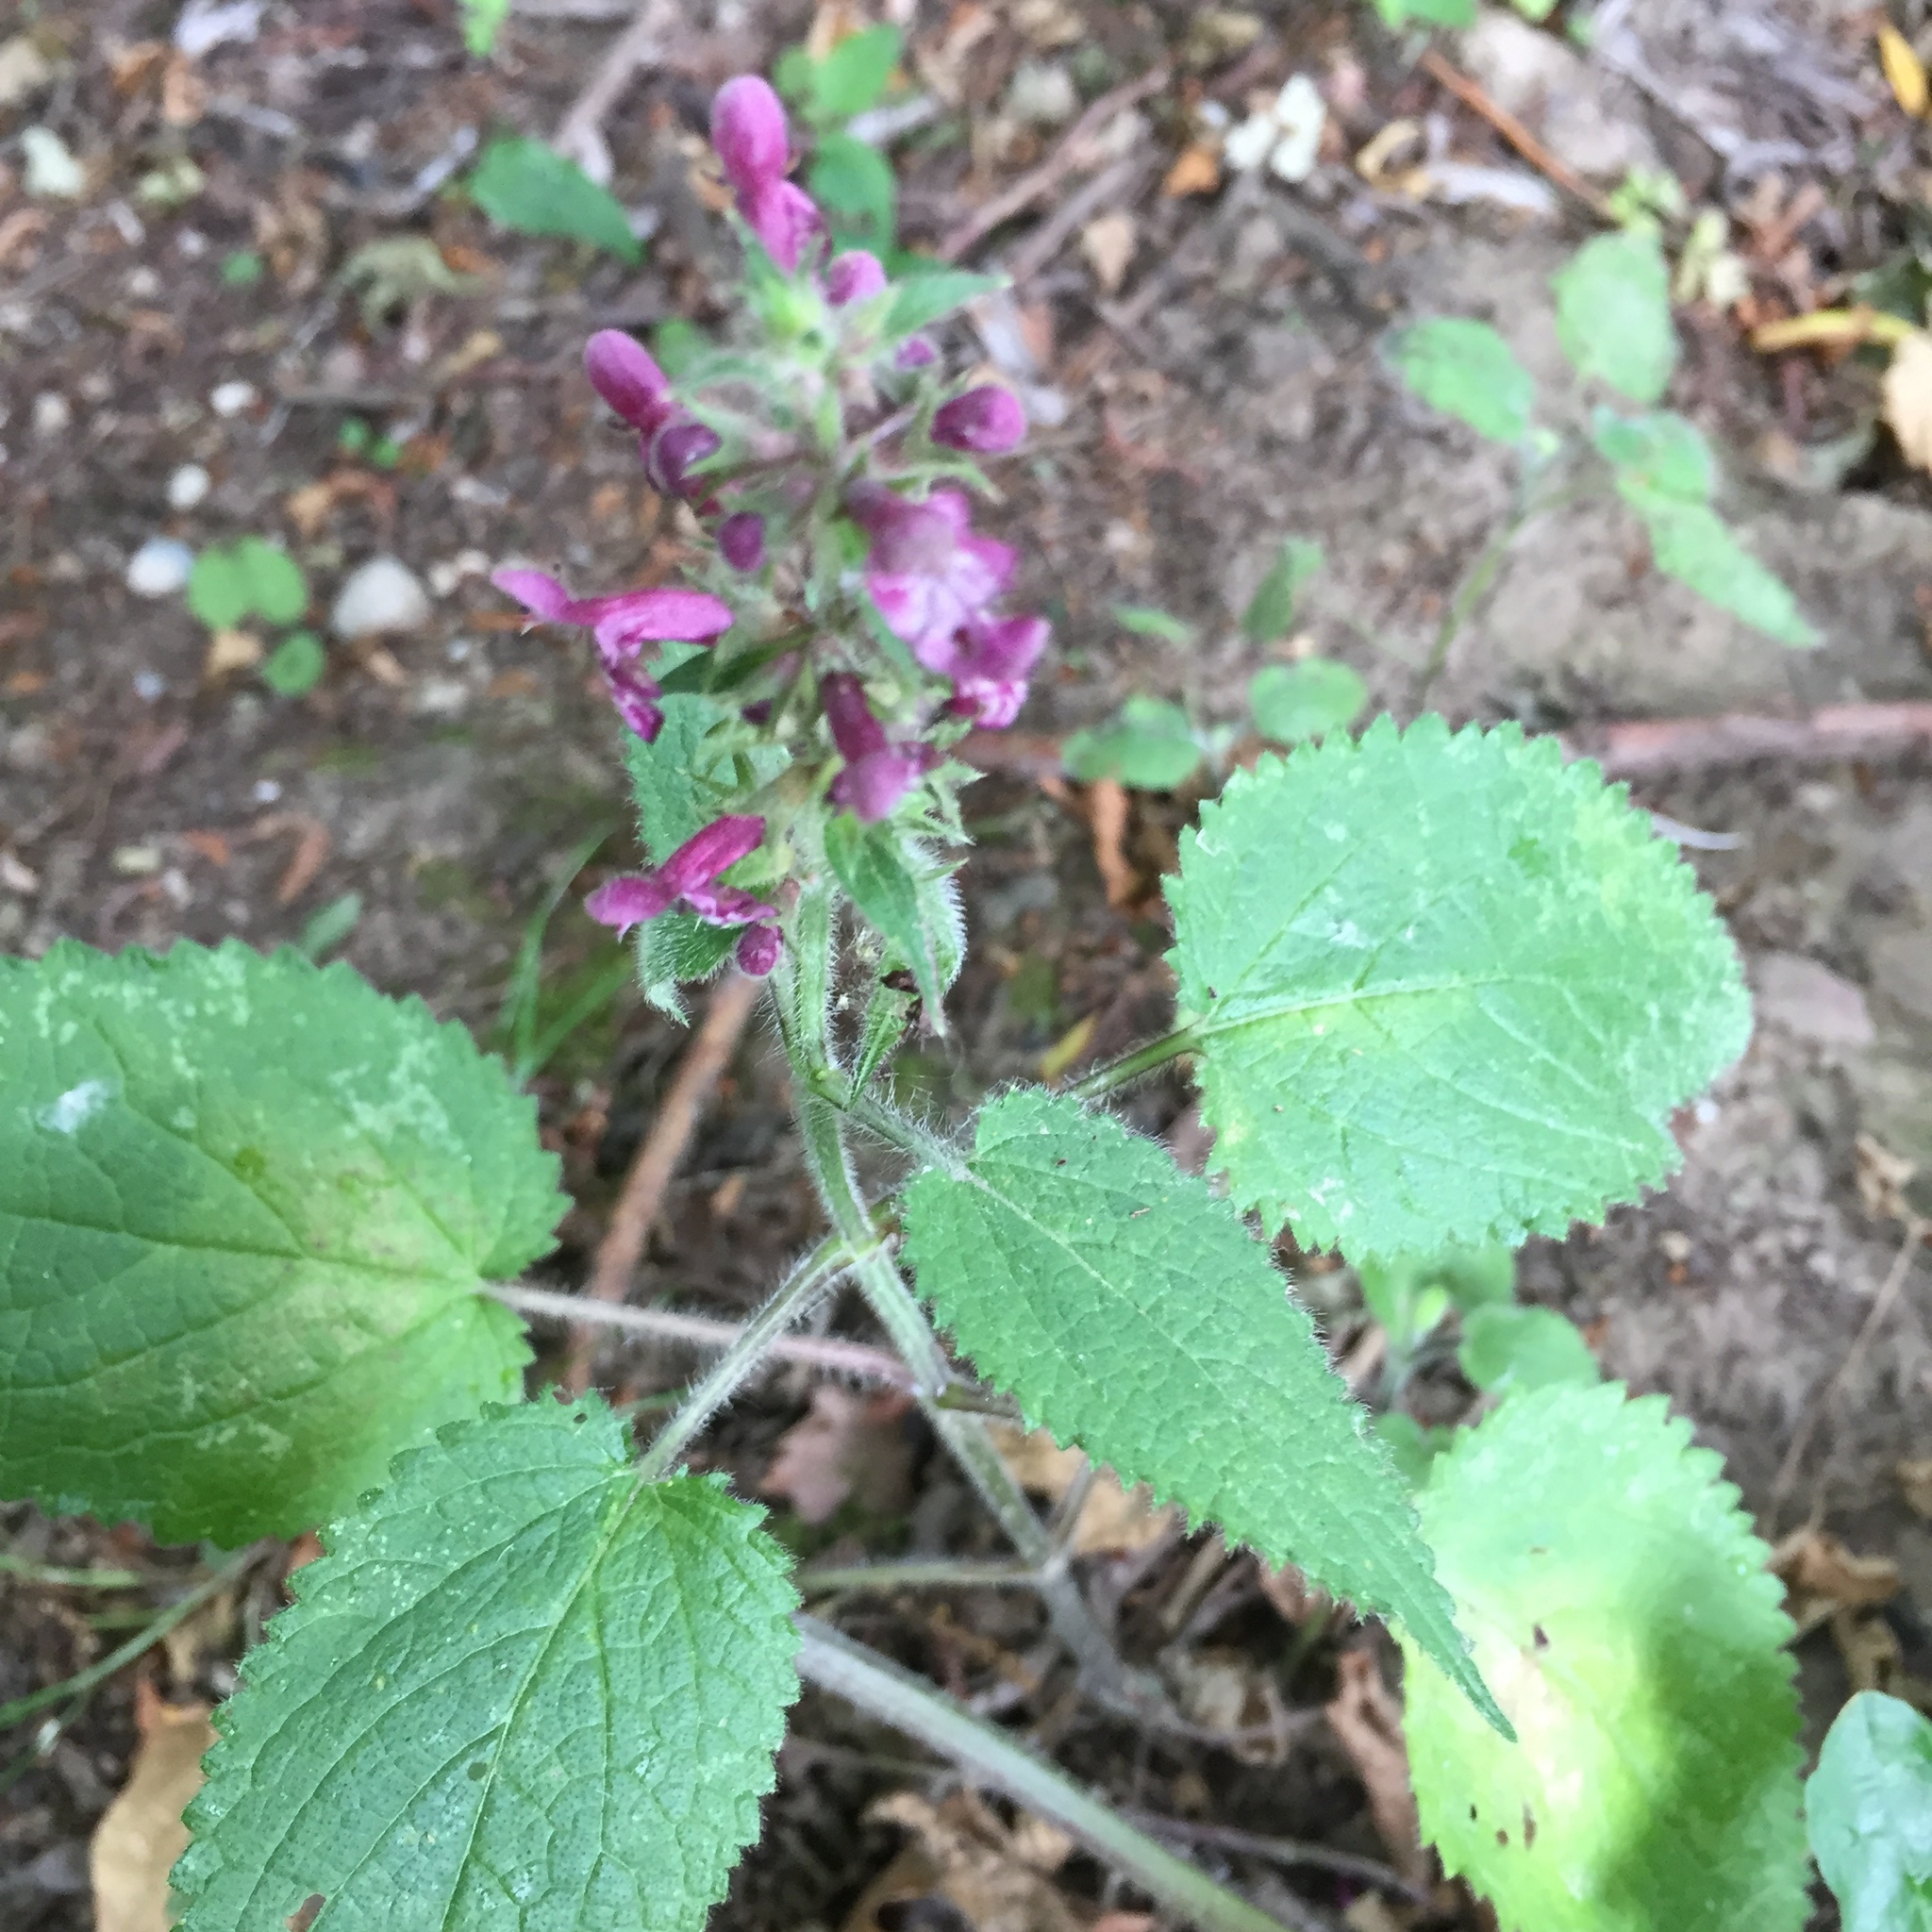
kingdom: Plantae
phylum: Tracheophyta
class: Magnoliopsida
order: Lamiales
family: Lamiaceae
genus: Stachys
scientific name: Stachys sylvatica
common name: Hedge woundwort
